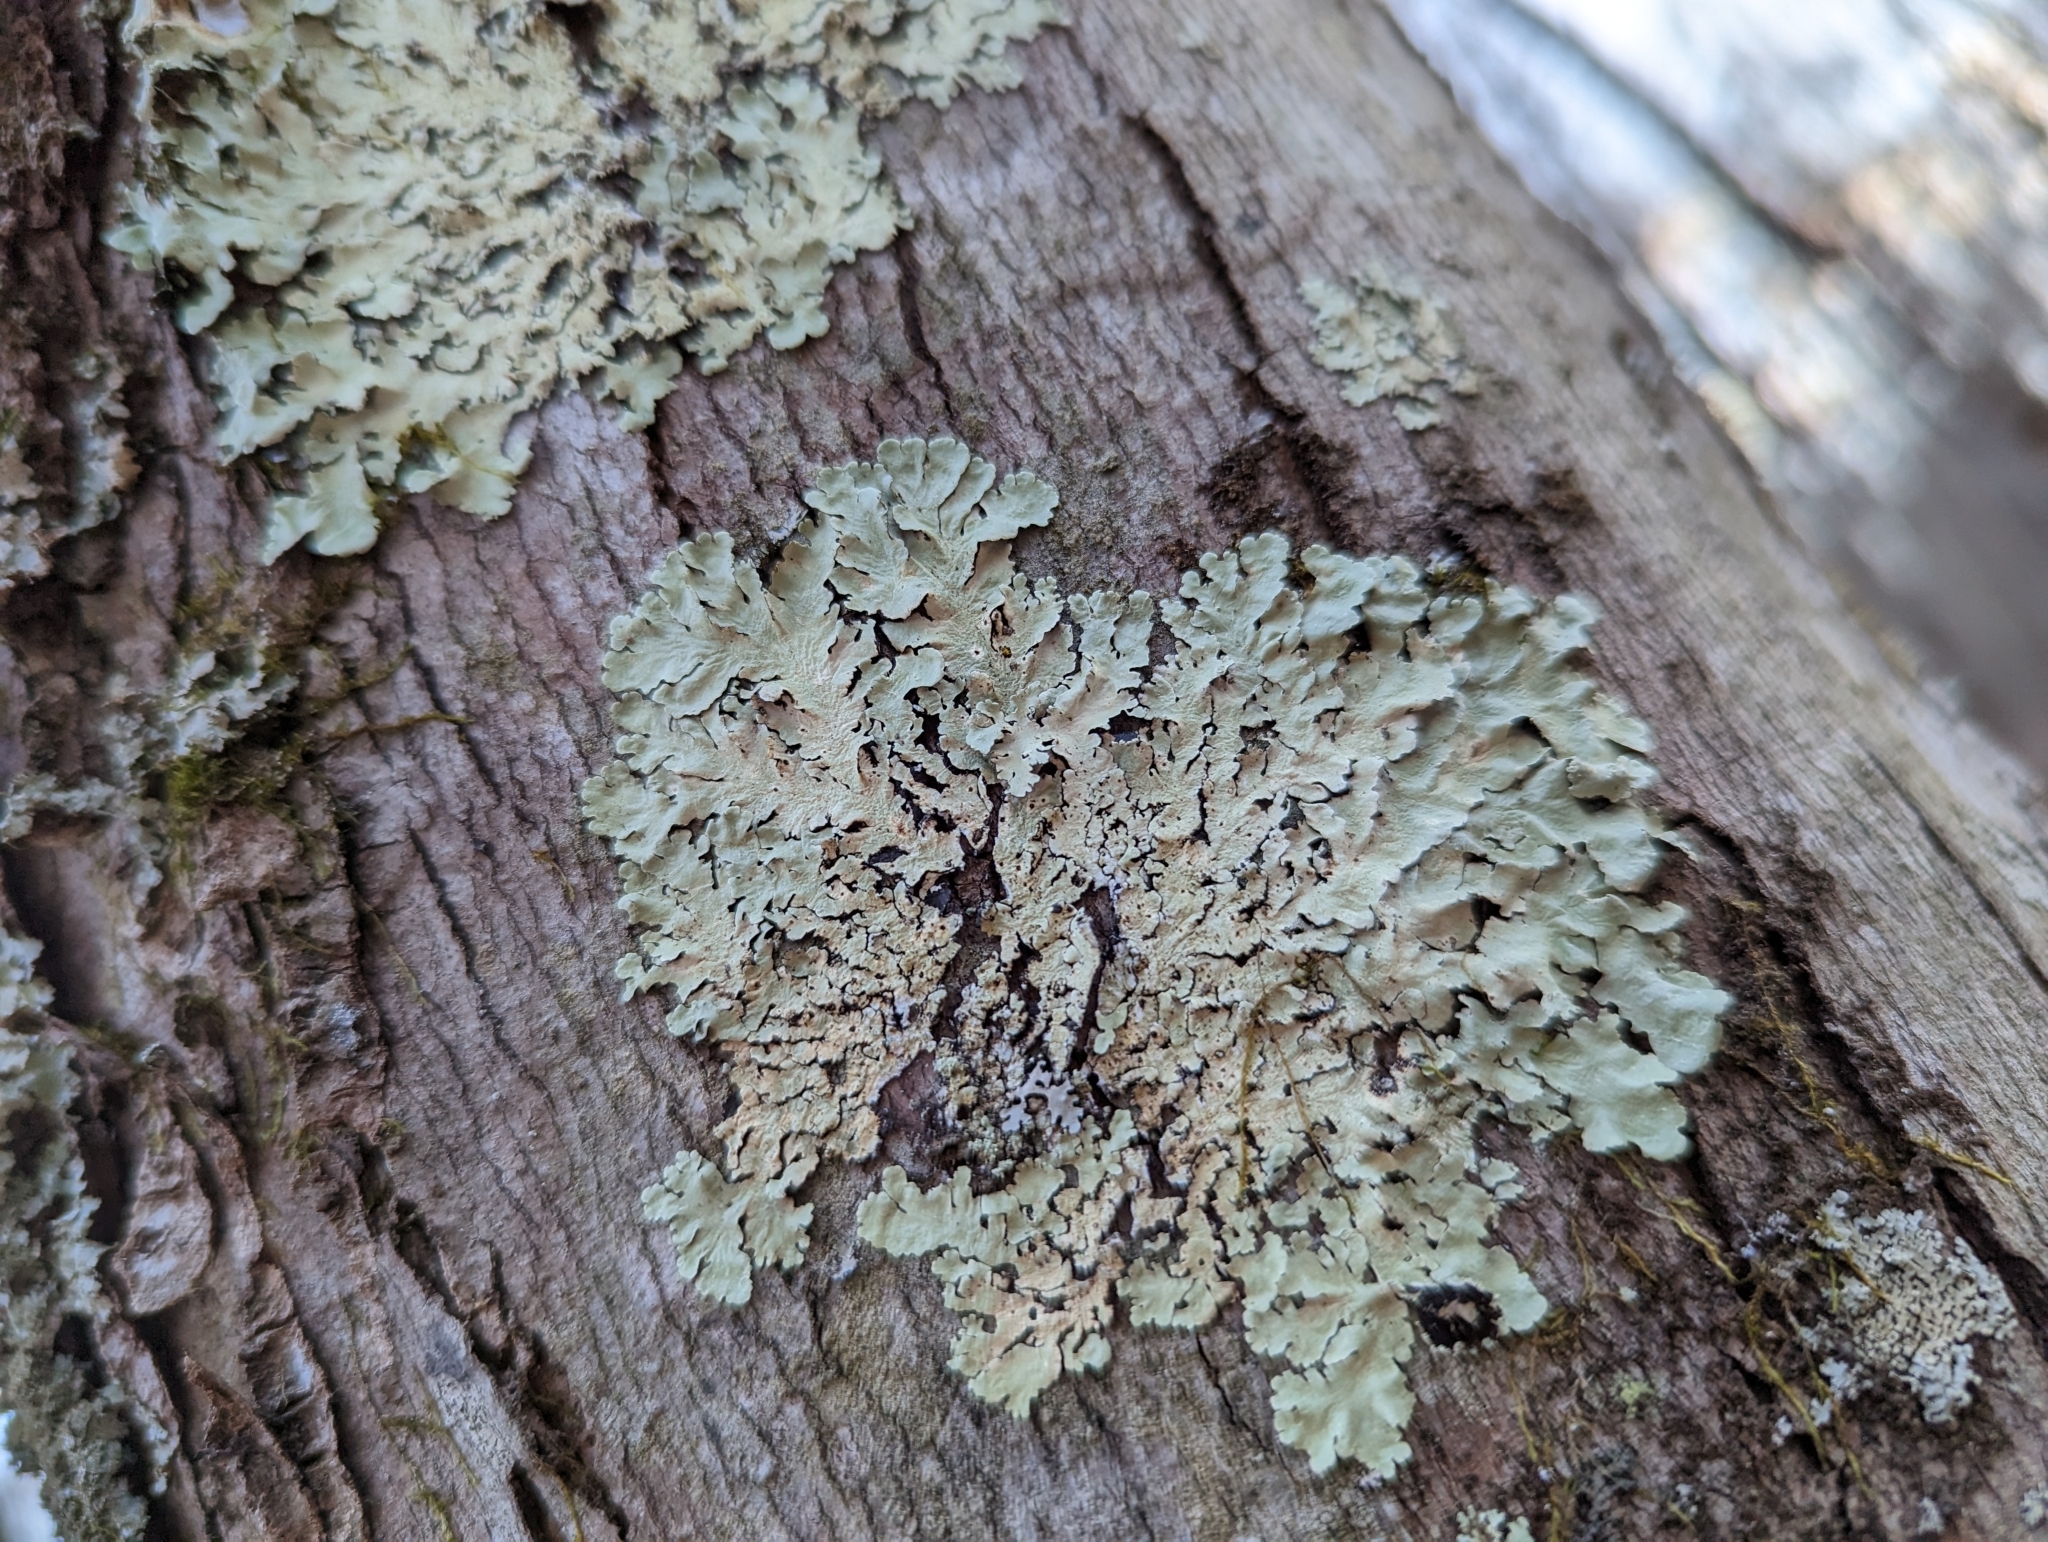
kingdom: Fungi
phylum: Ascomycota
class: Lecanoromycetes
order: Lecanorales
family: Parmeliaceae
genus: Flavoparmelia
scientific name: Flavoparmelia caperata
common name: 40-mile per hour lichen
